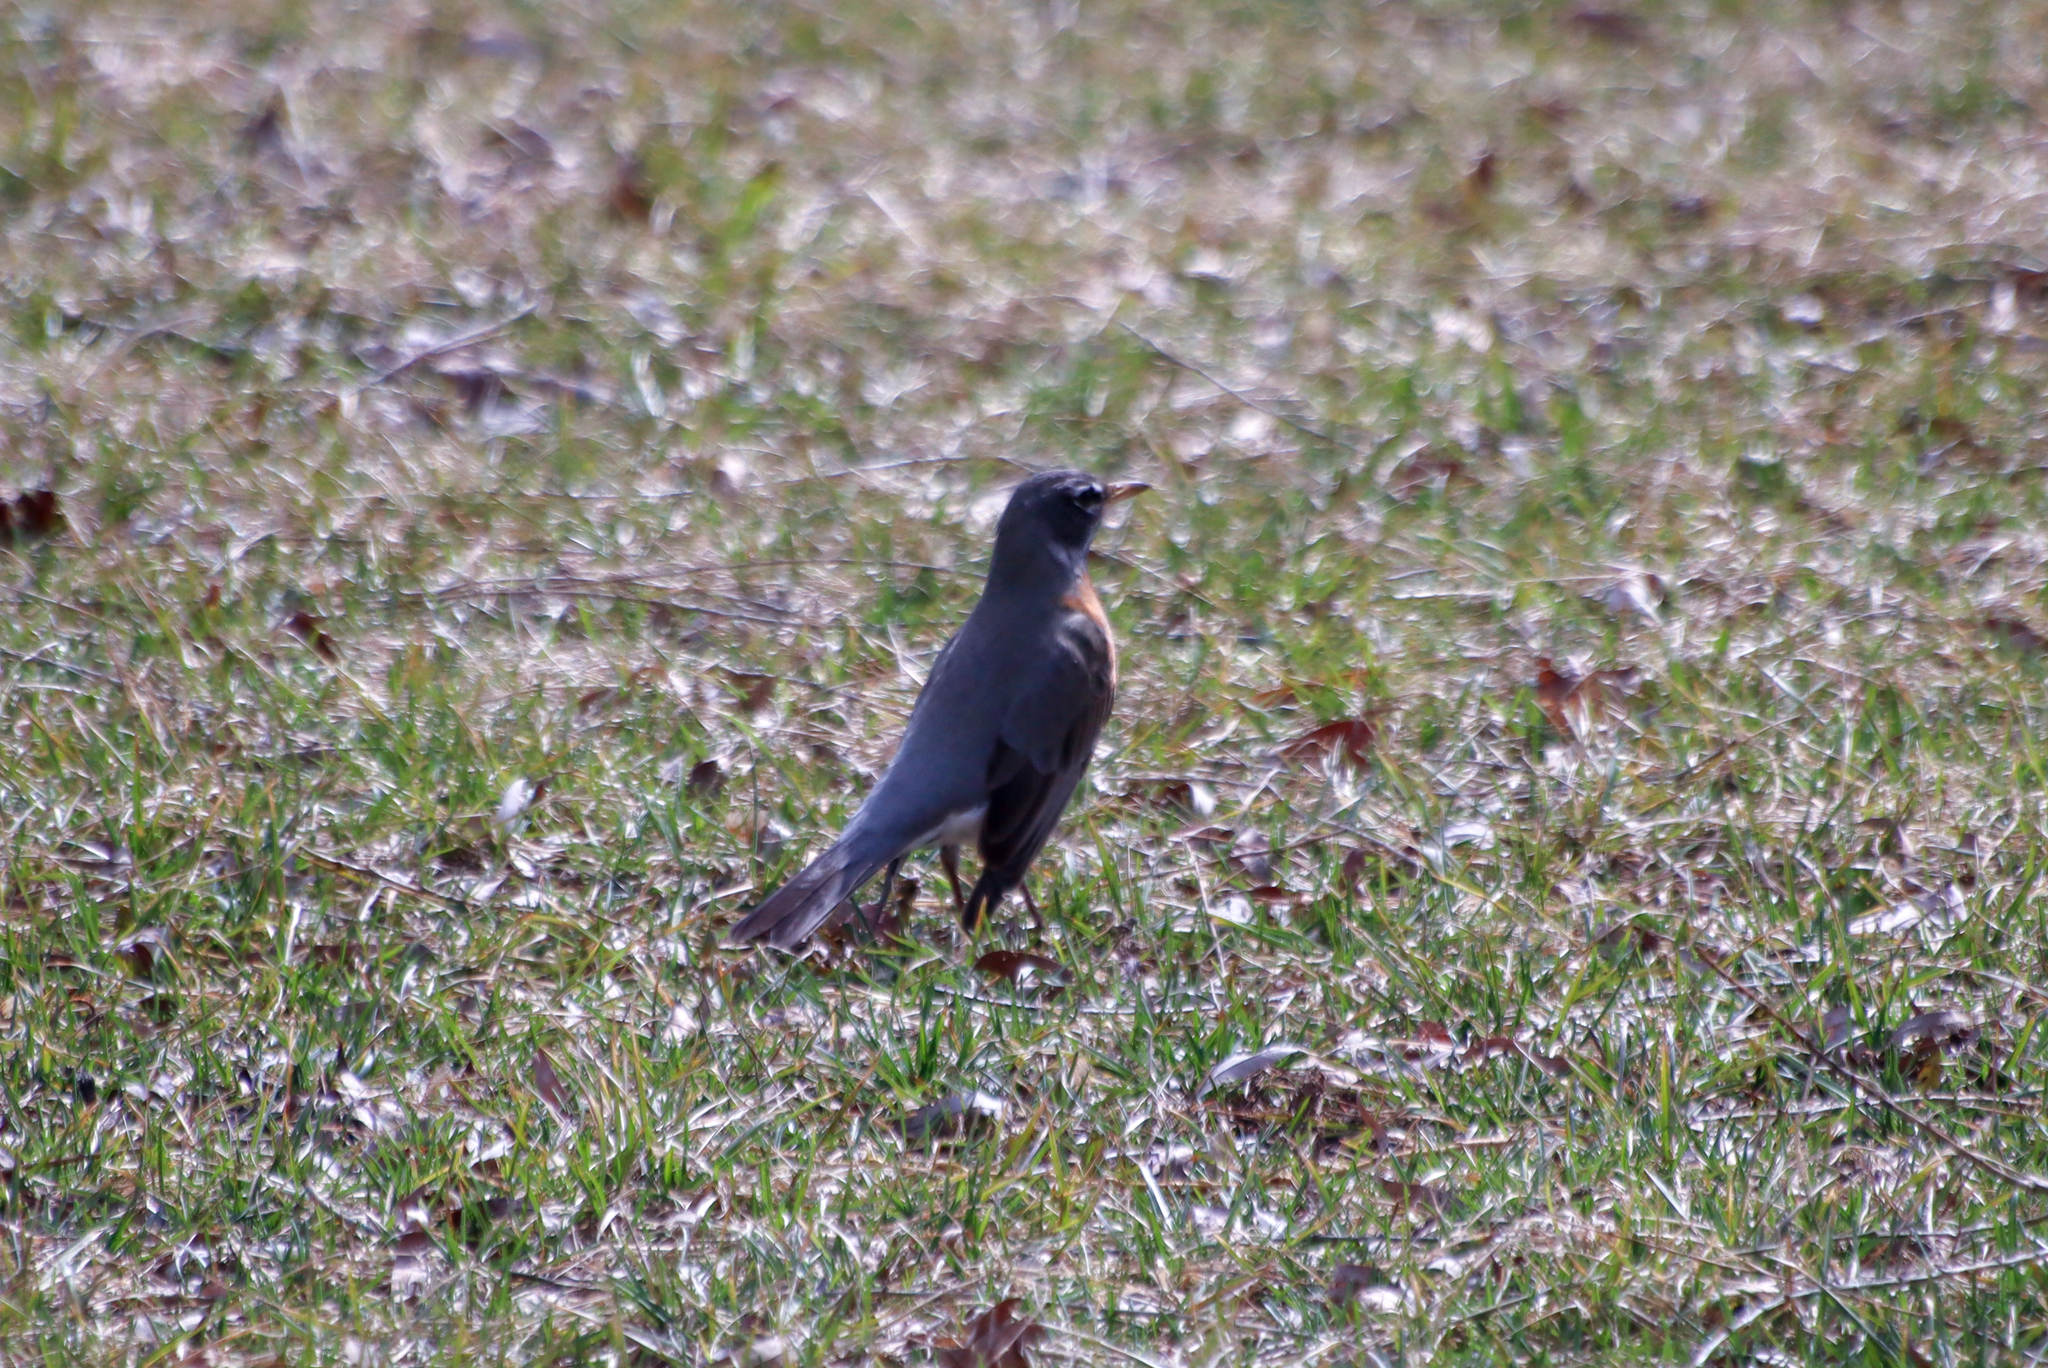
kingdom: Animalia
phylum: Chordata
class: Aves
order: Passeriformes
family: Turdidae
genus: Turdus
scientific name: Turdus migratorius
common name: American robin
